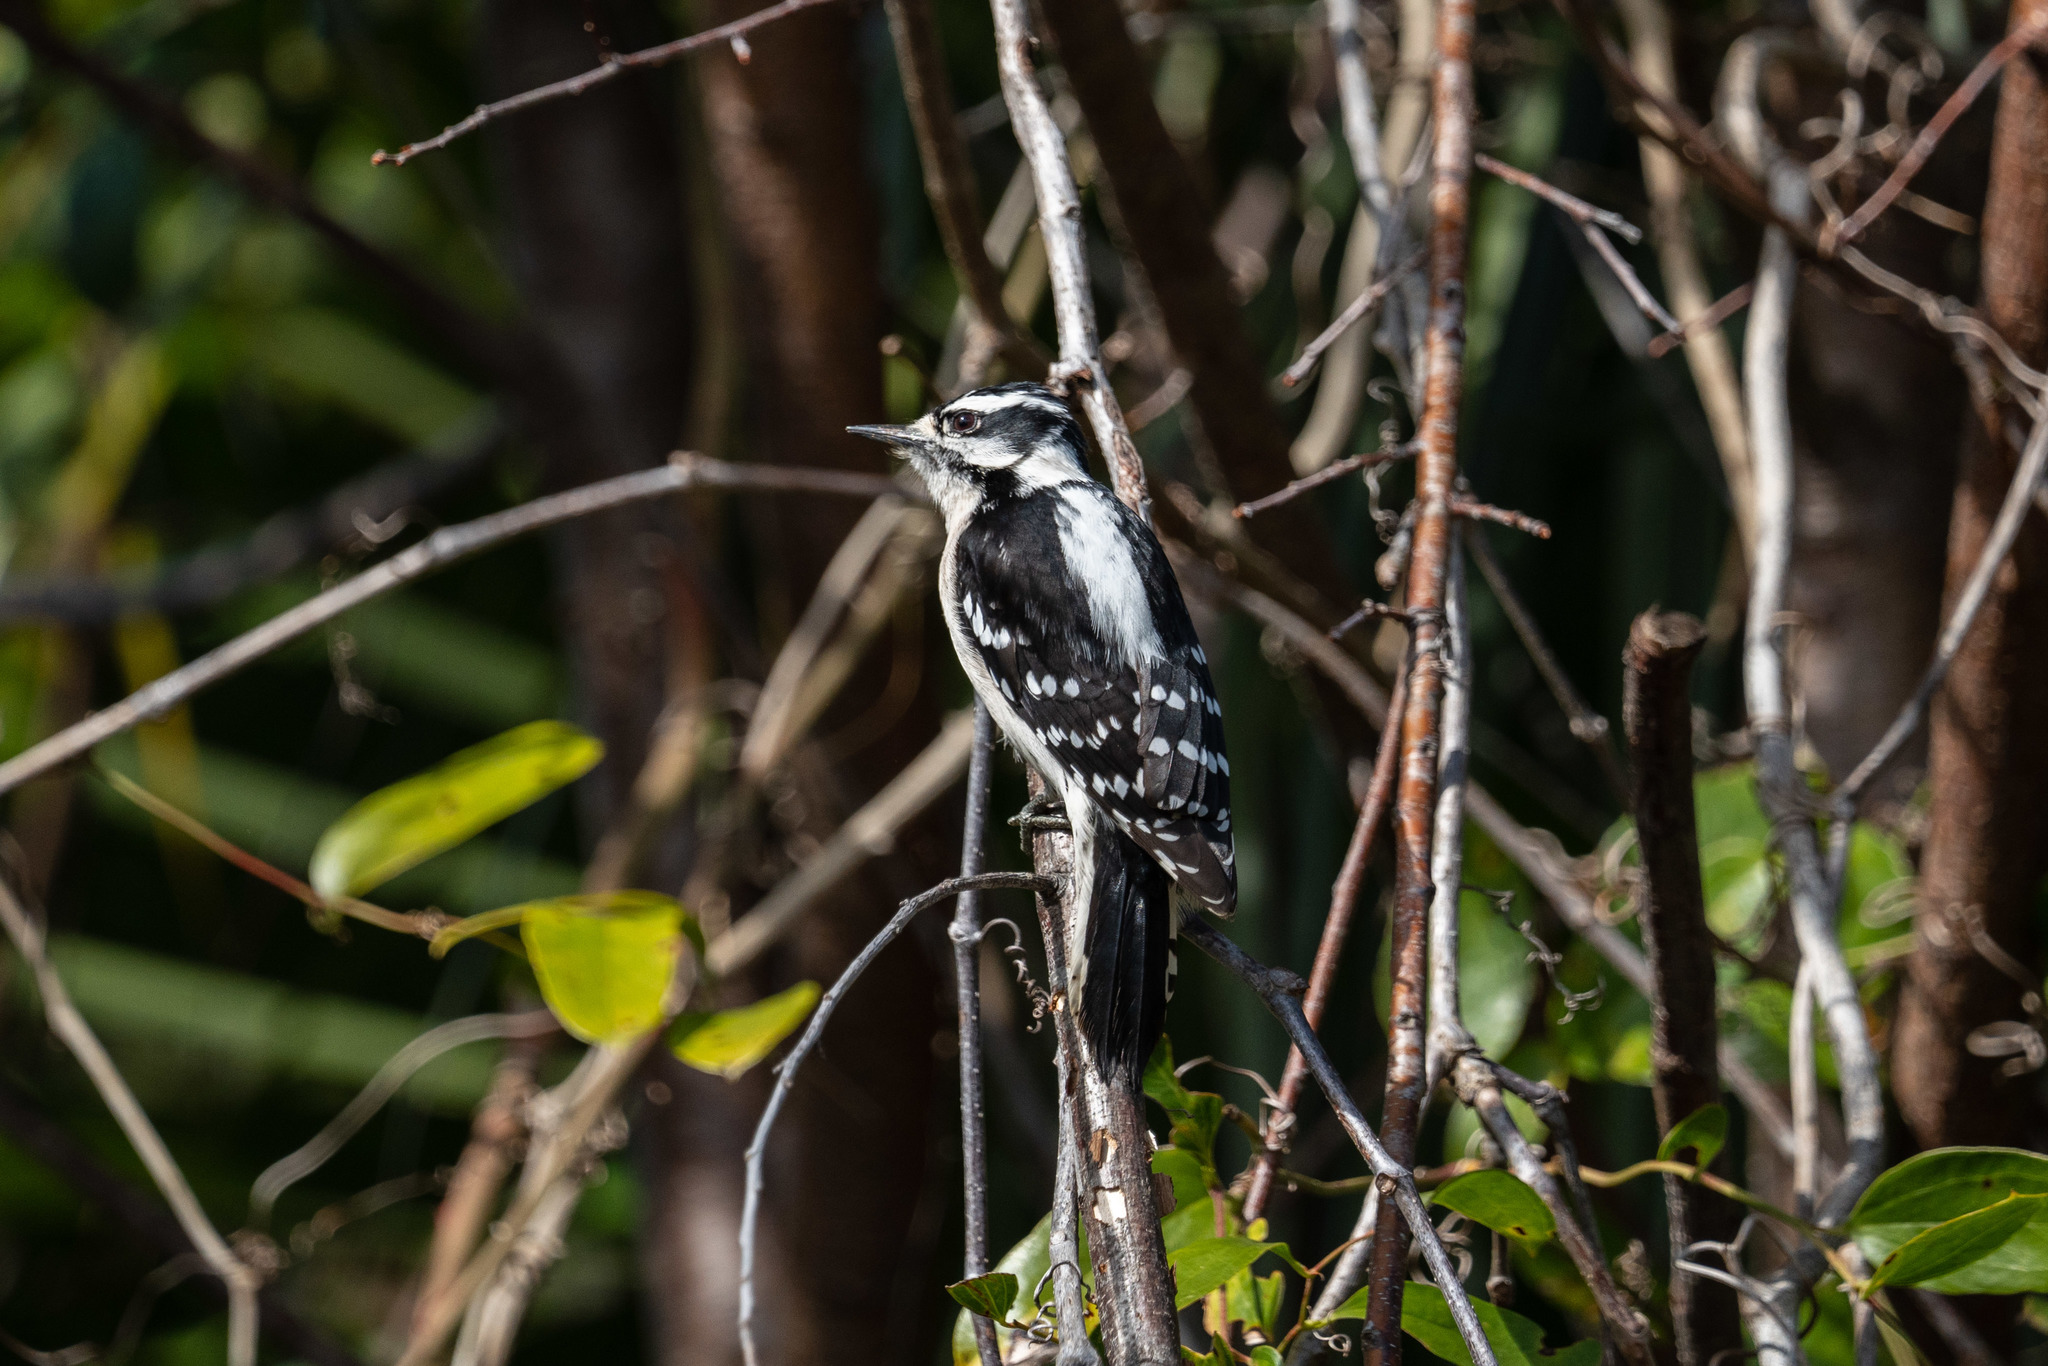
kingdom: Animalia
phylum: Chordata
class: Aves
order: Piciformes
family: Picidae
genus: Dryobates
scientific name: Dryobates pubescens
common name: Downy woodpecker
